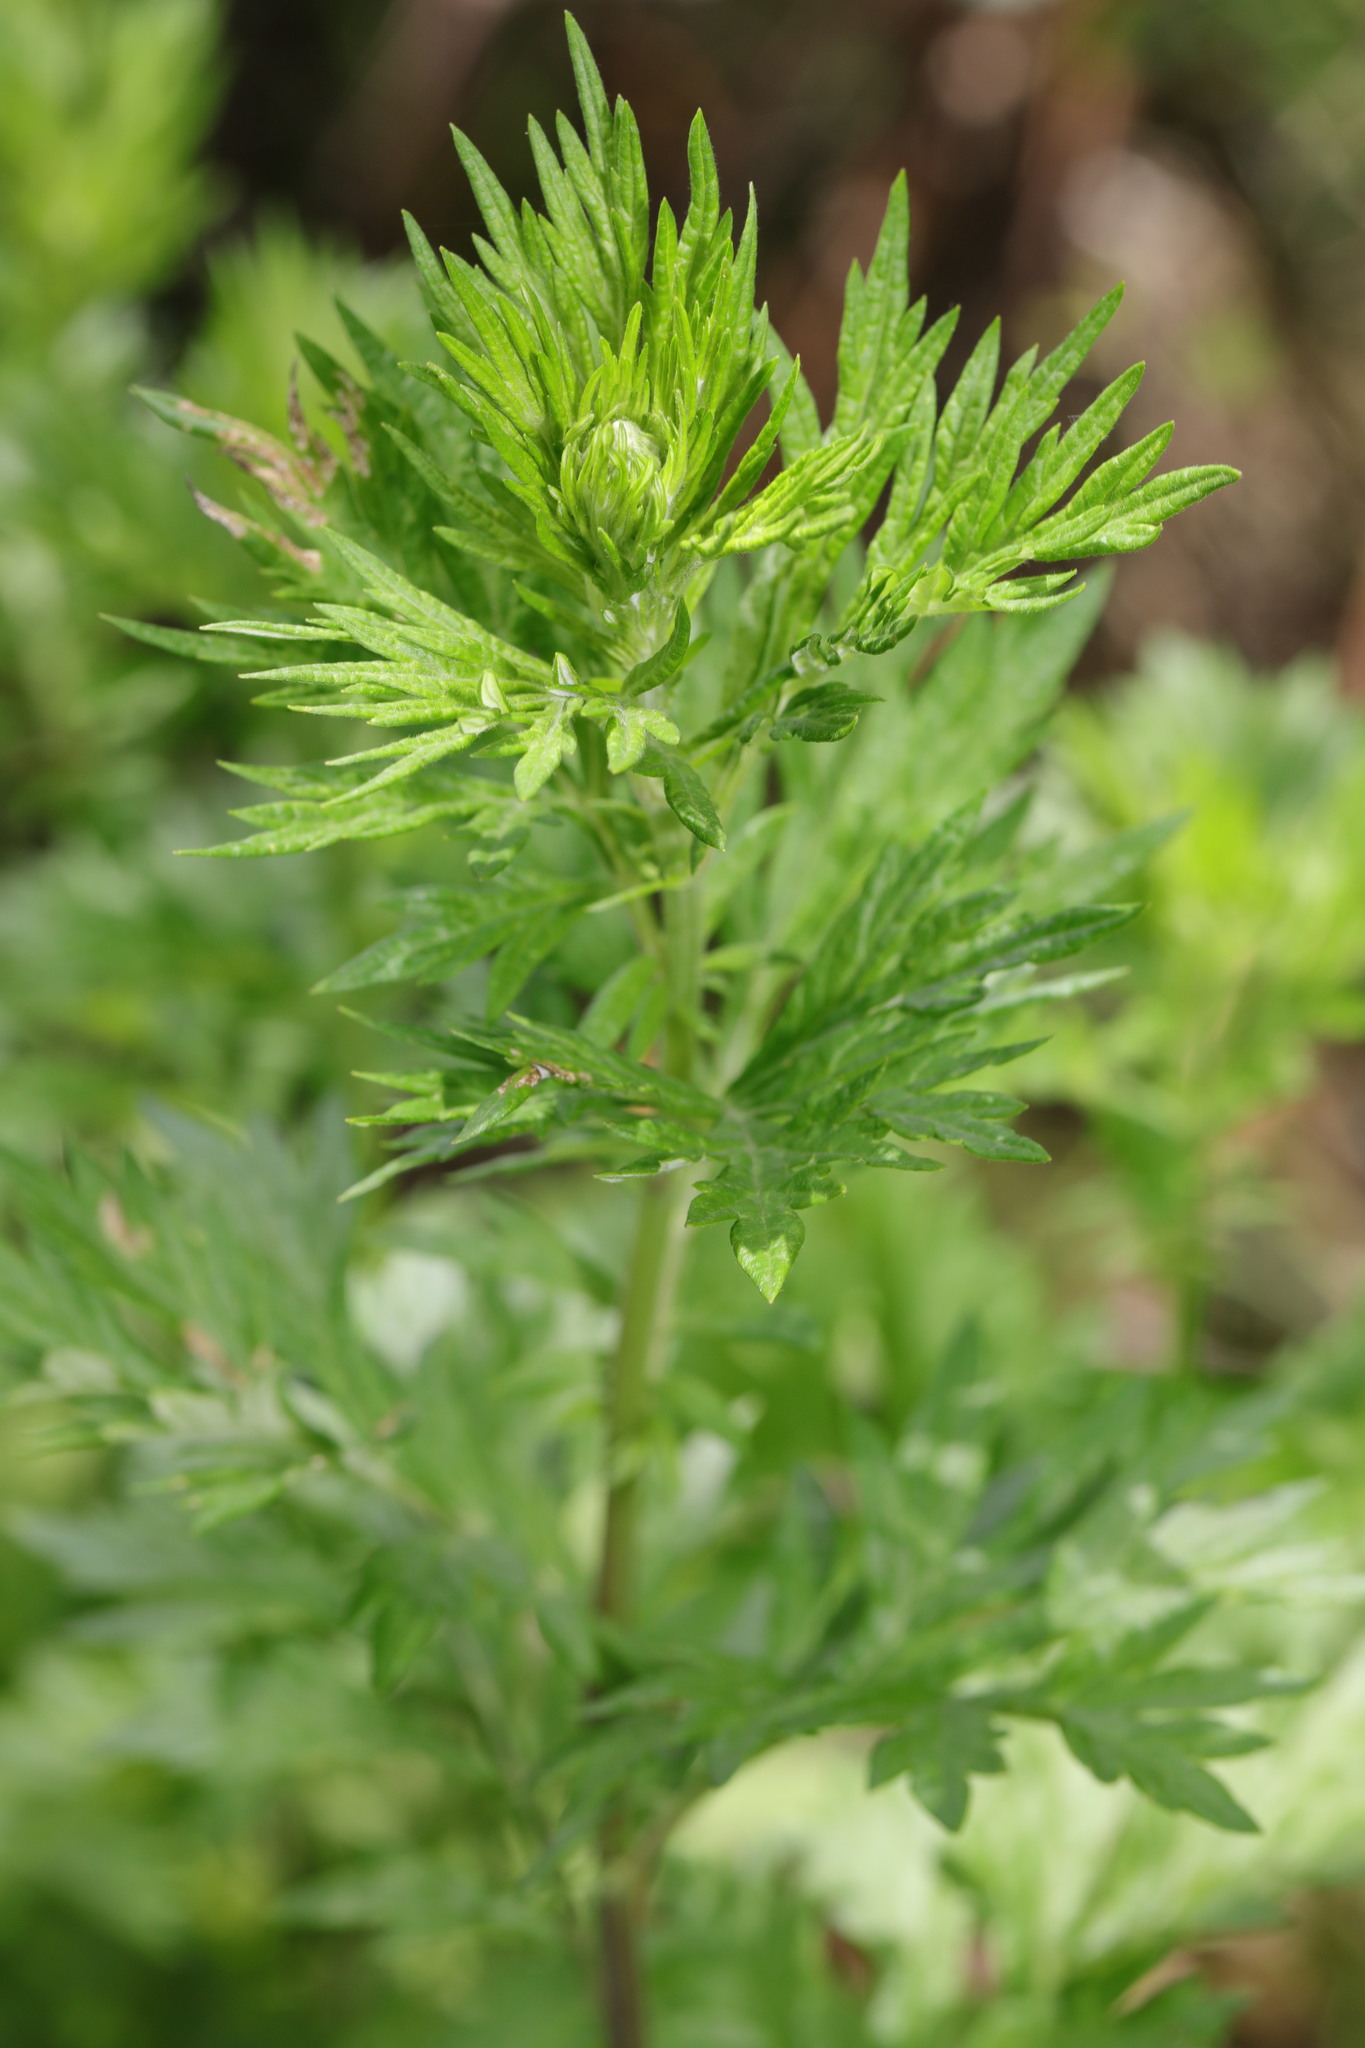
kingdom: Plantae
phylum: Tracheophyta
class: Magnoliopsida
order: Asterales
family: Asteraceae
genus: Artemisia
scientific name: Artemisia vulgaris
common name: Mugwort
